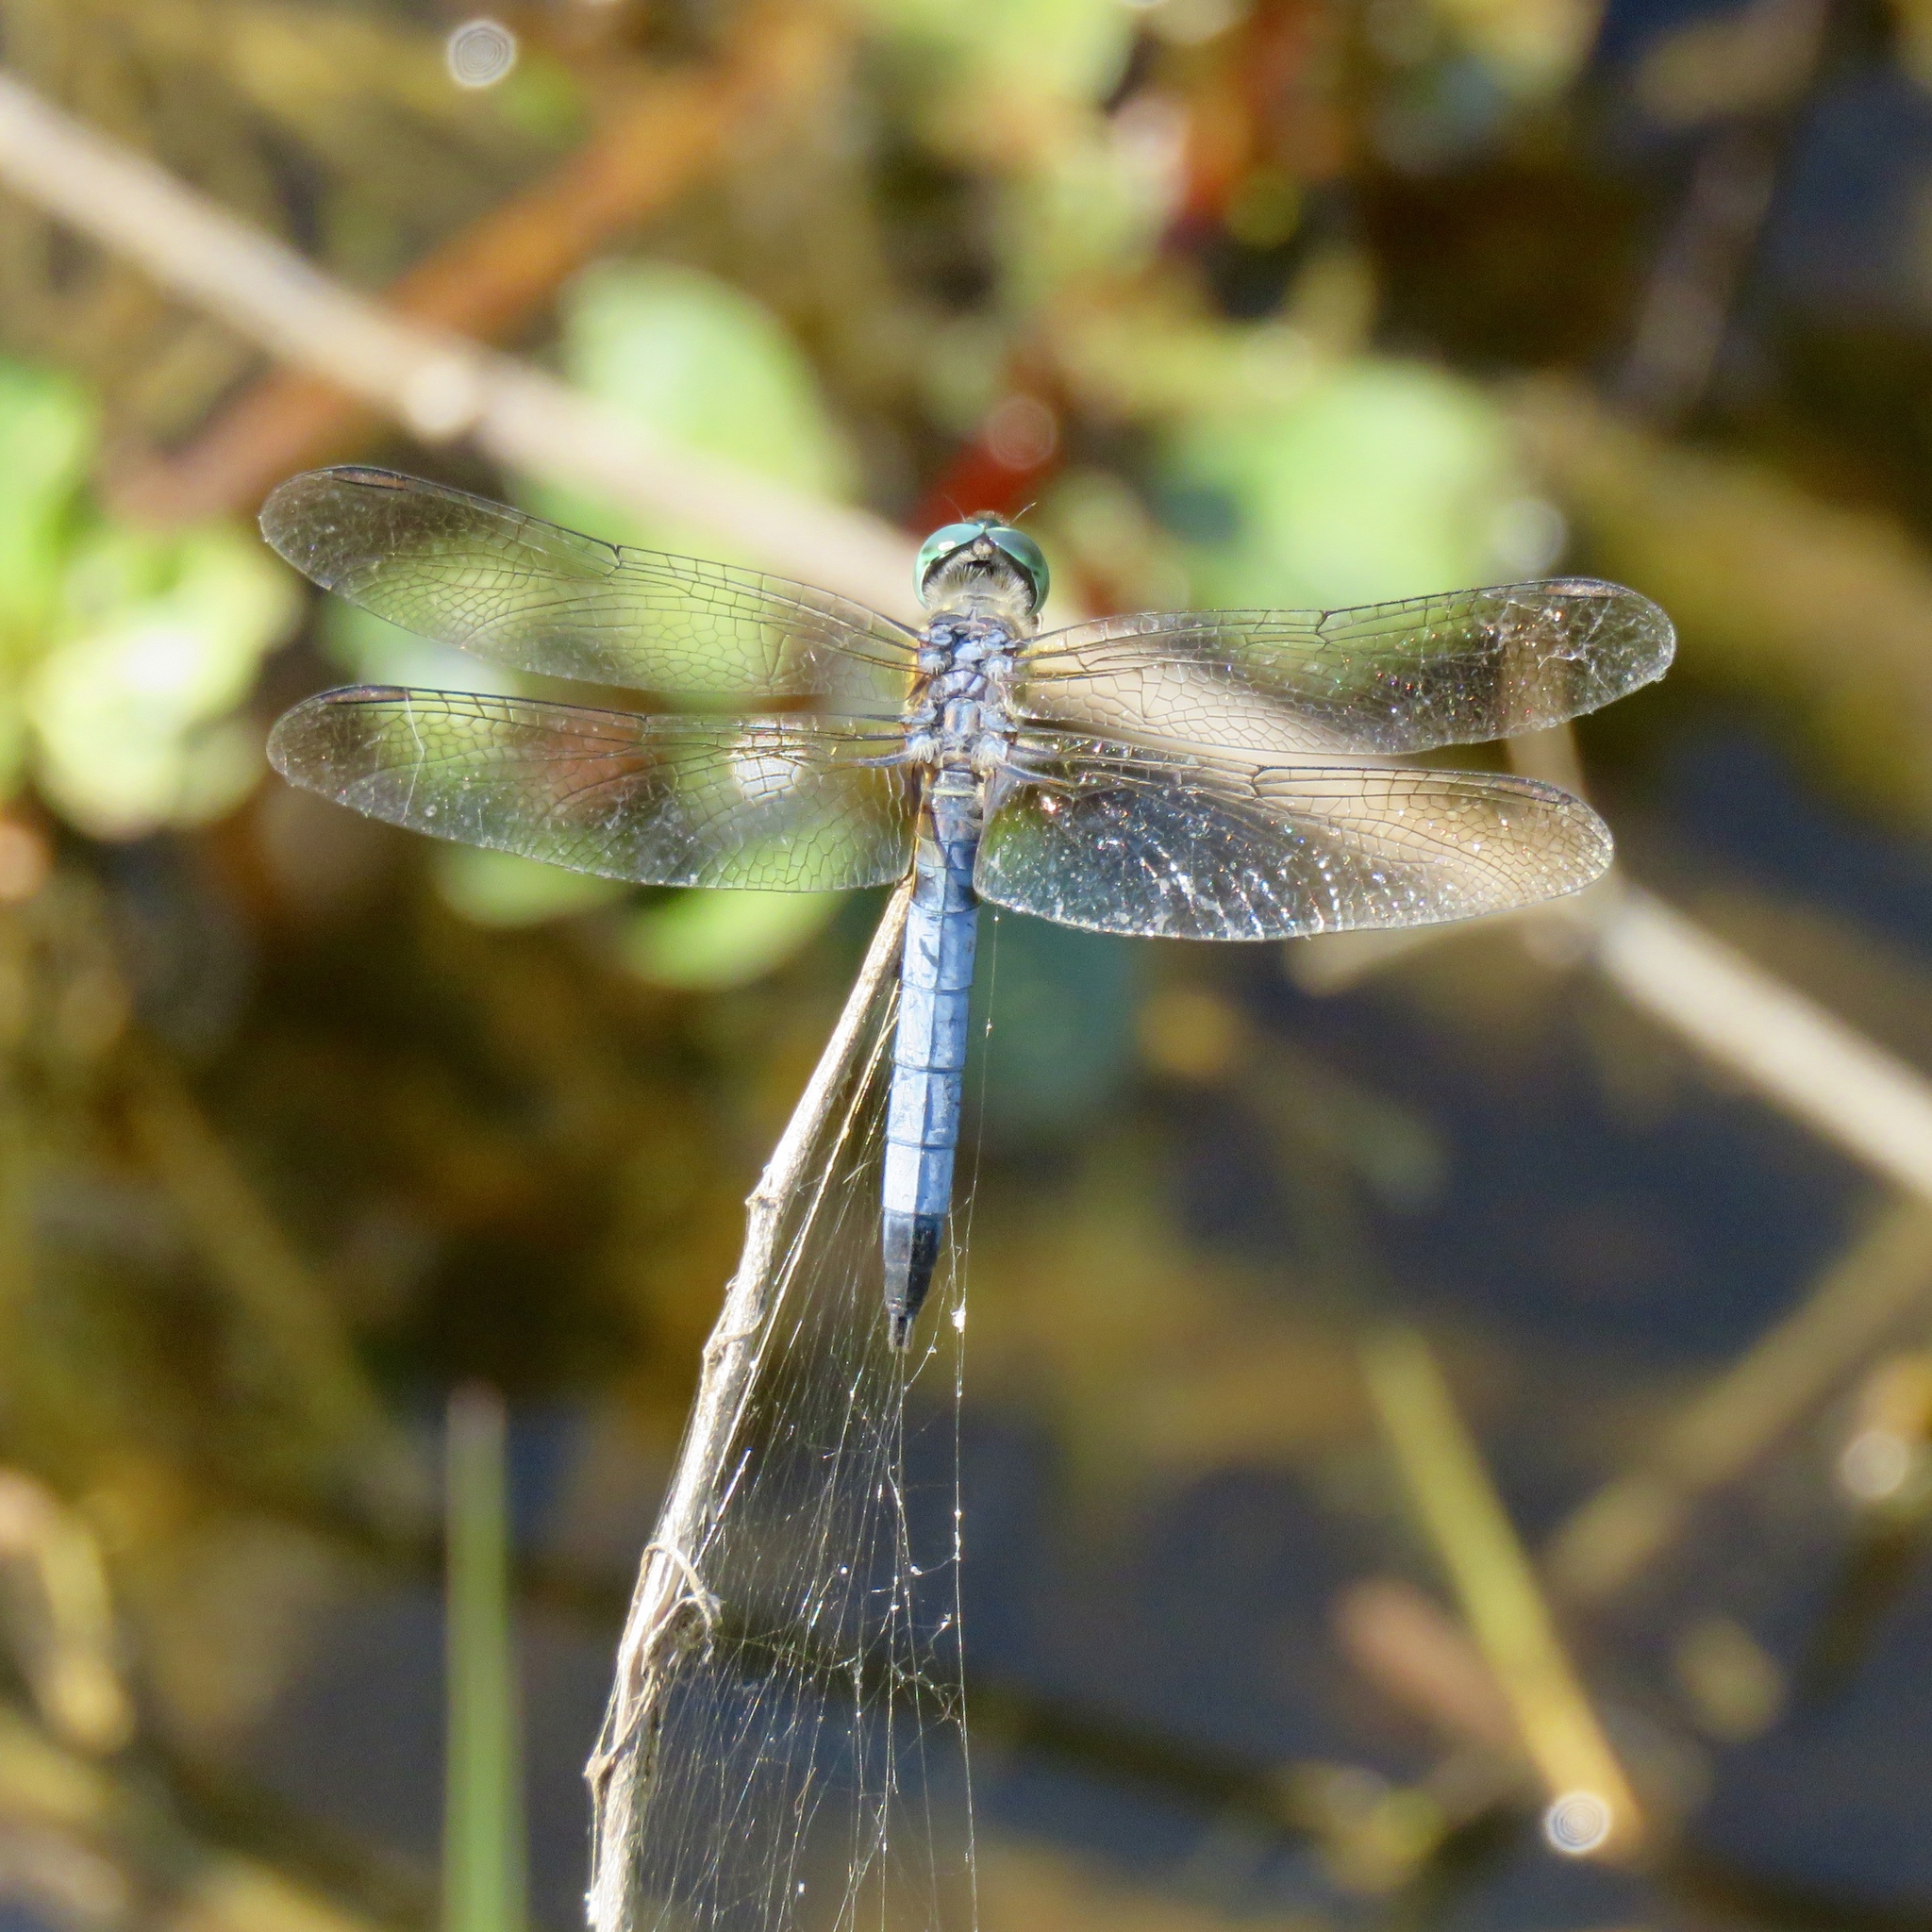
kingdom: Animalia
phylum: Arthropoda
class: Insecta
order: Odonata
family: Libellulidae
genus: Pachydiplax
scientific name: Pachydiplax longipennis
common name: Blue dasher
